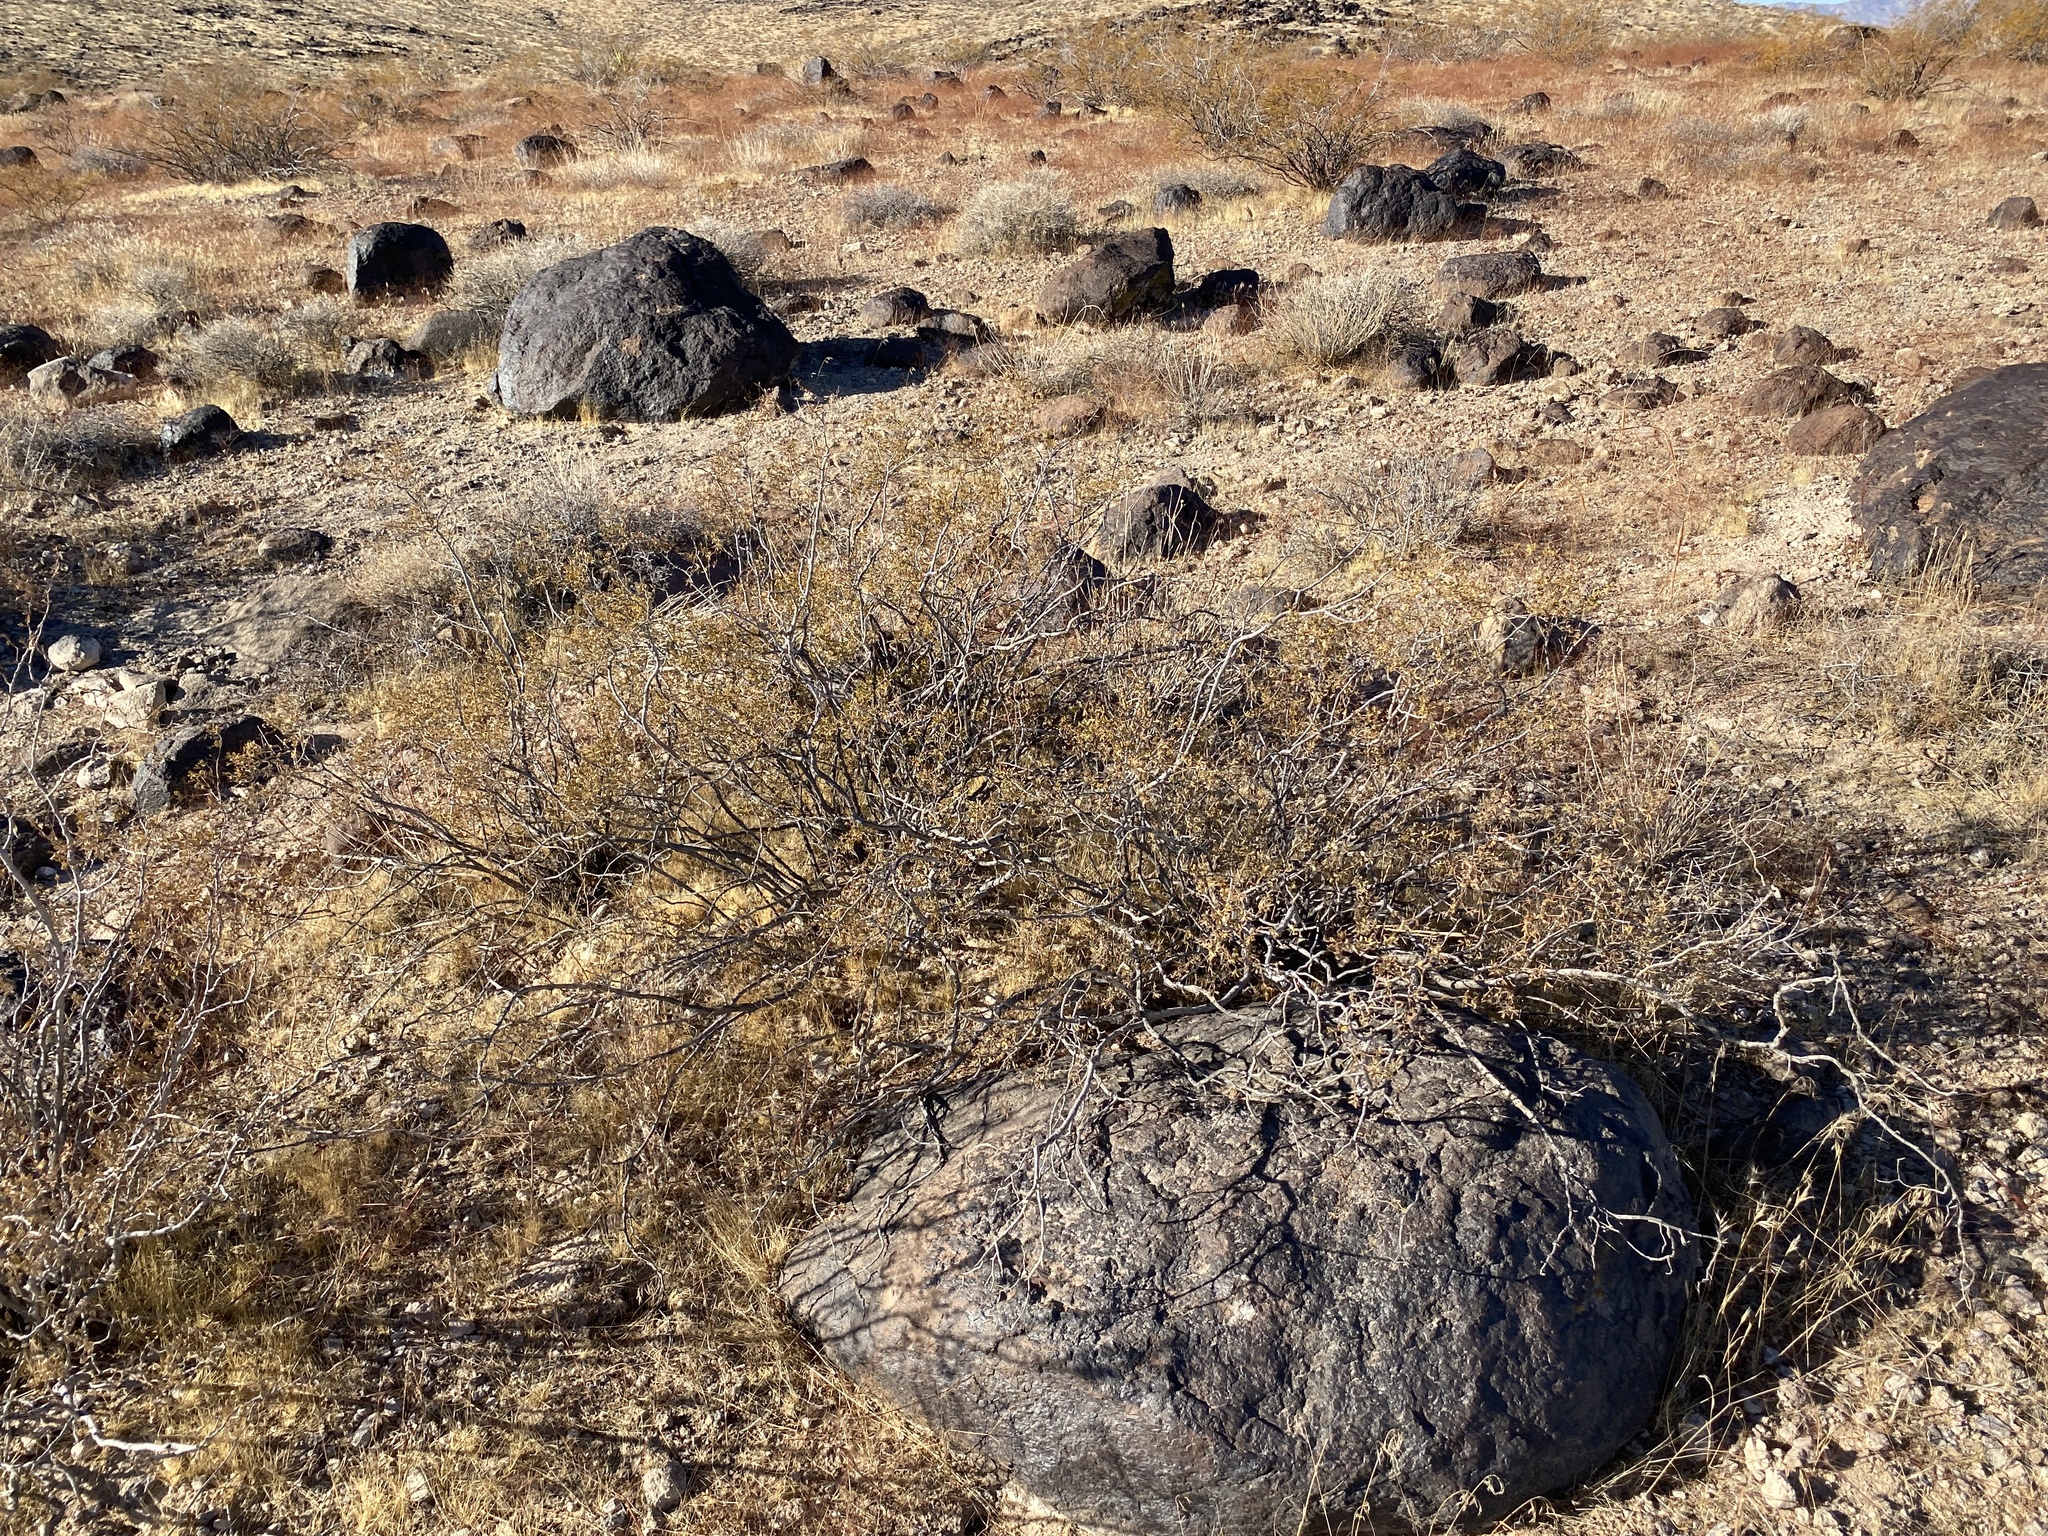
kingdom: Plantae
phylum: Tracheophyta
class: Magnoliopsida
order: Zygophyllales
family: Zygophyllaceae
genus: Larrea
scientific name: Larrea tridentata
